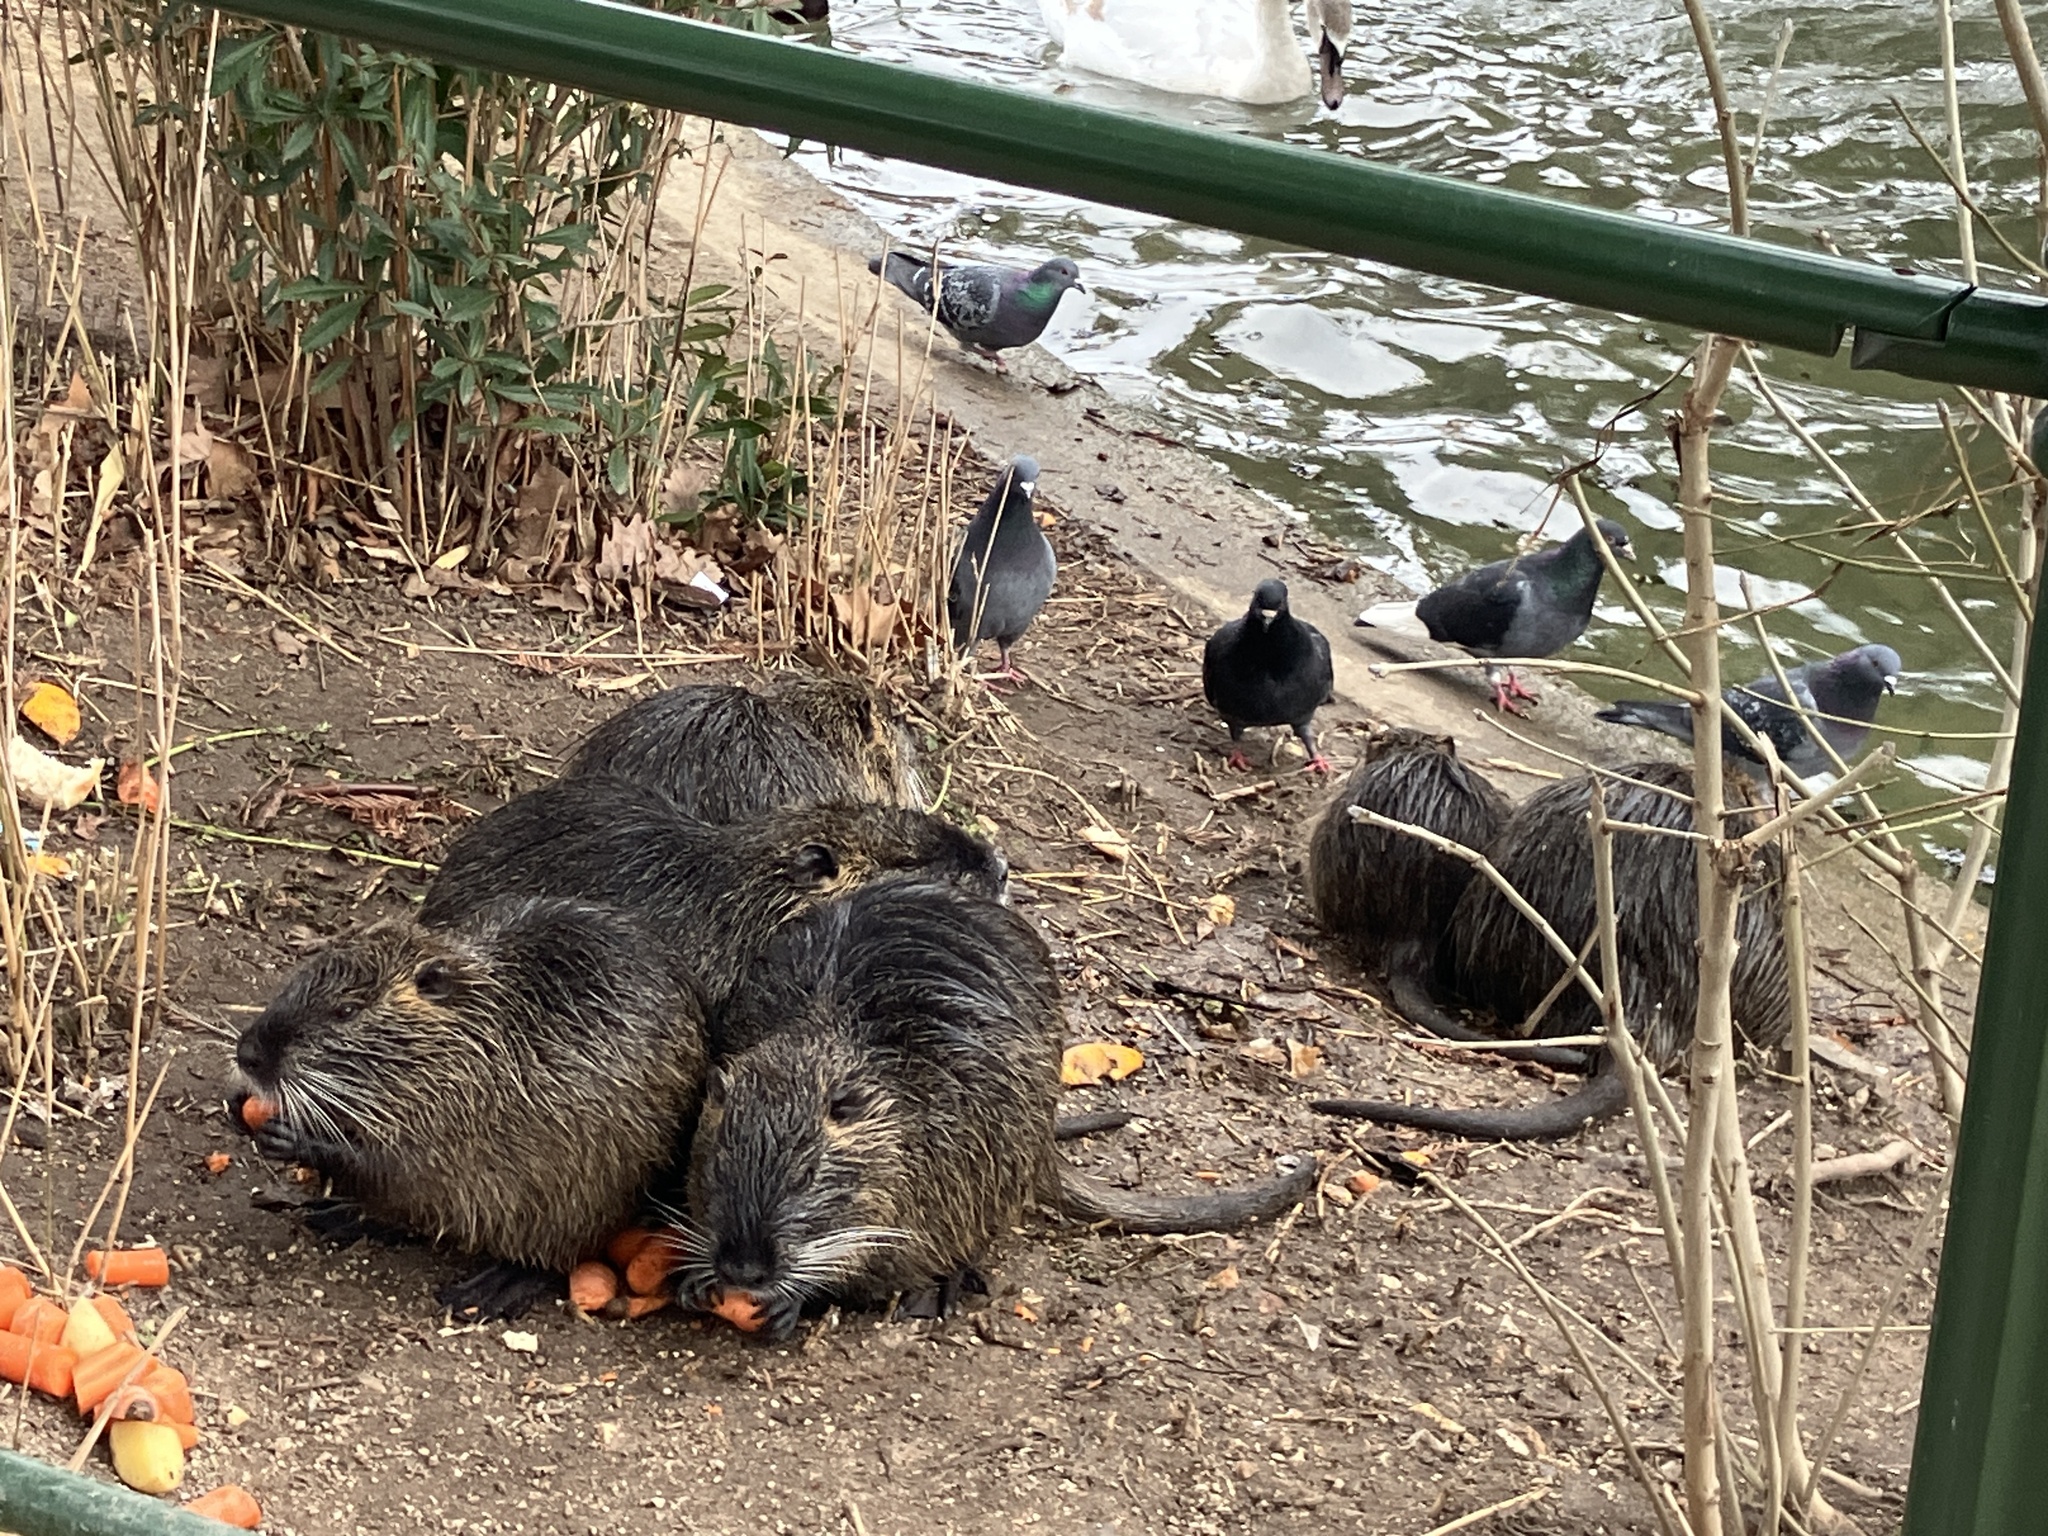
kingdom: Animalia
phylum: Chordata
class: Mammalia
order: Rodentia
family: Myocastoridae
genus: Myocastor
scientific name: Myocastor coypus
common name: Coypu
